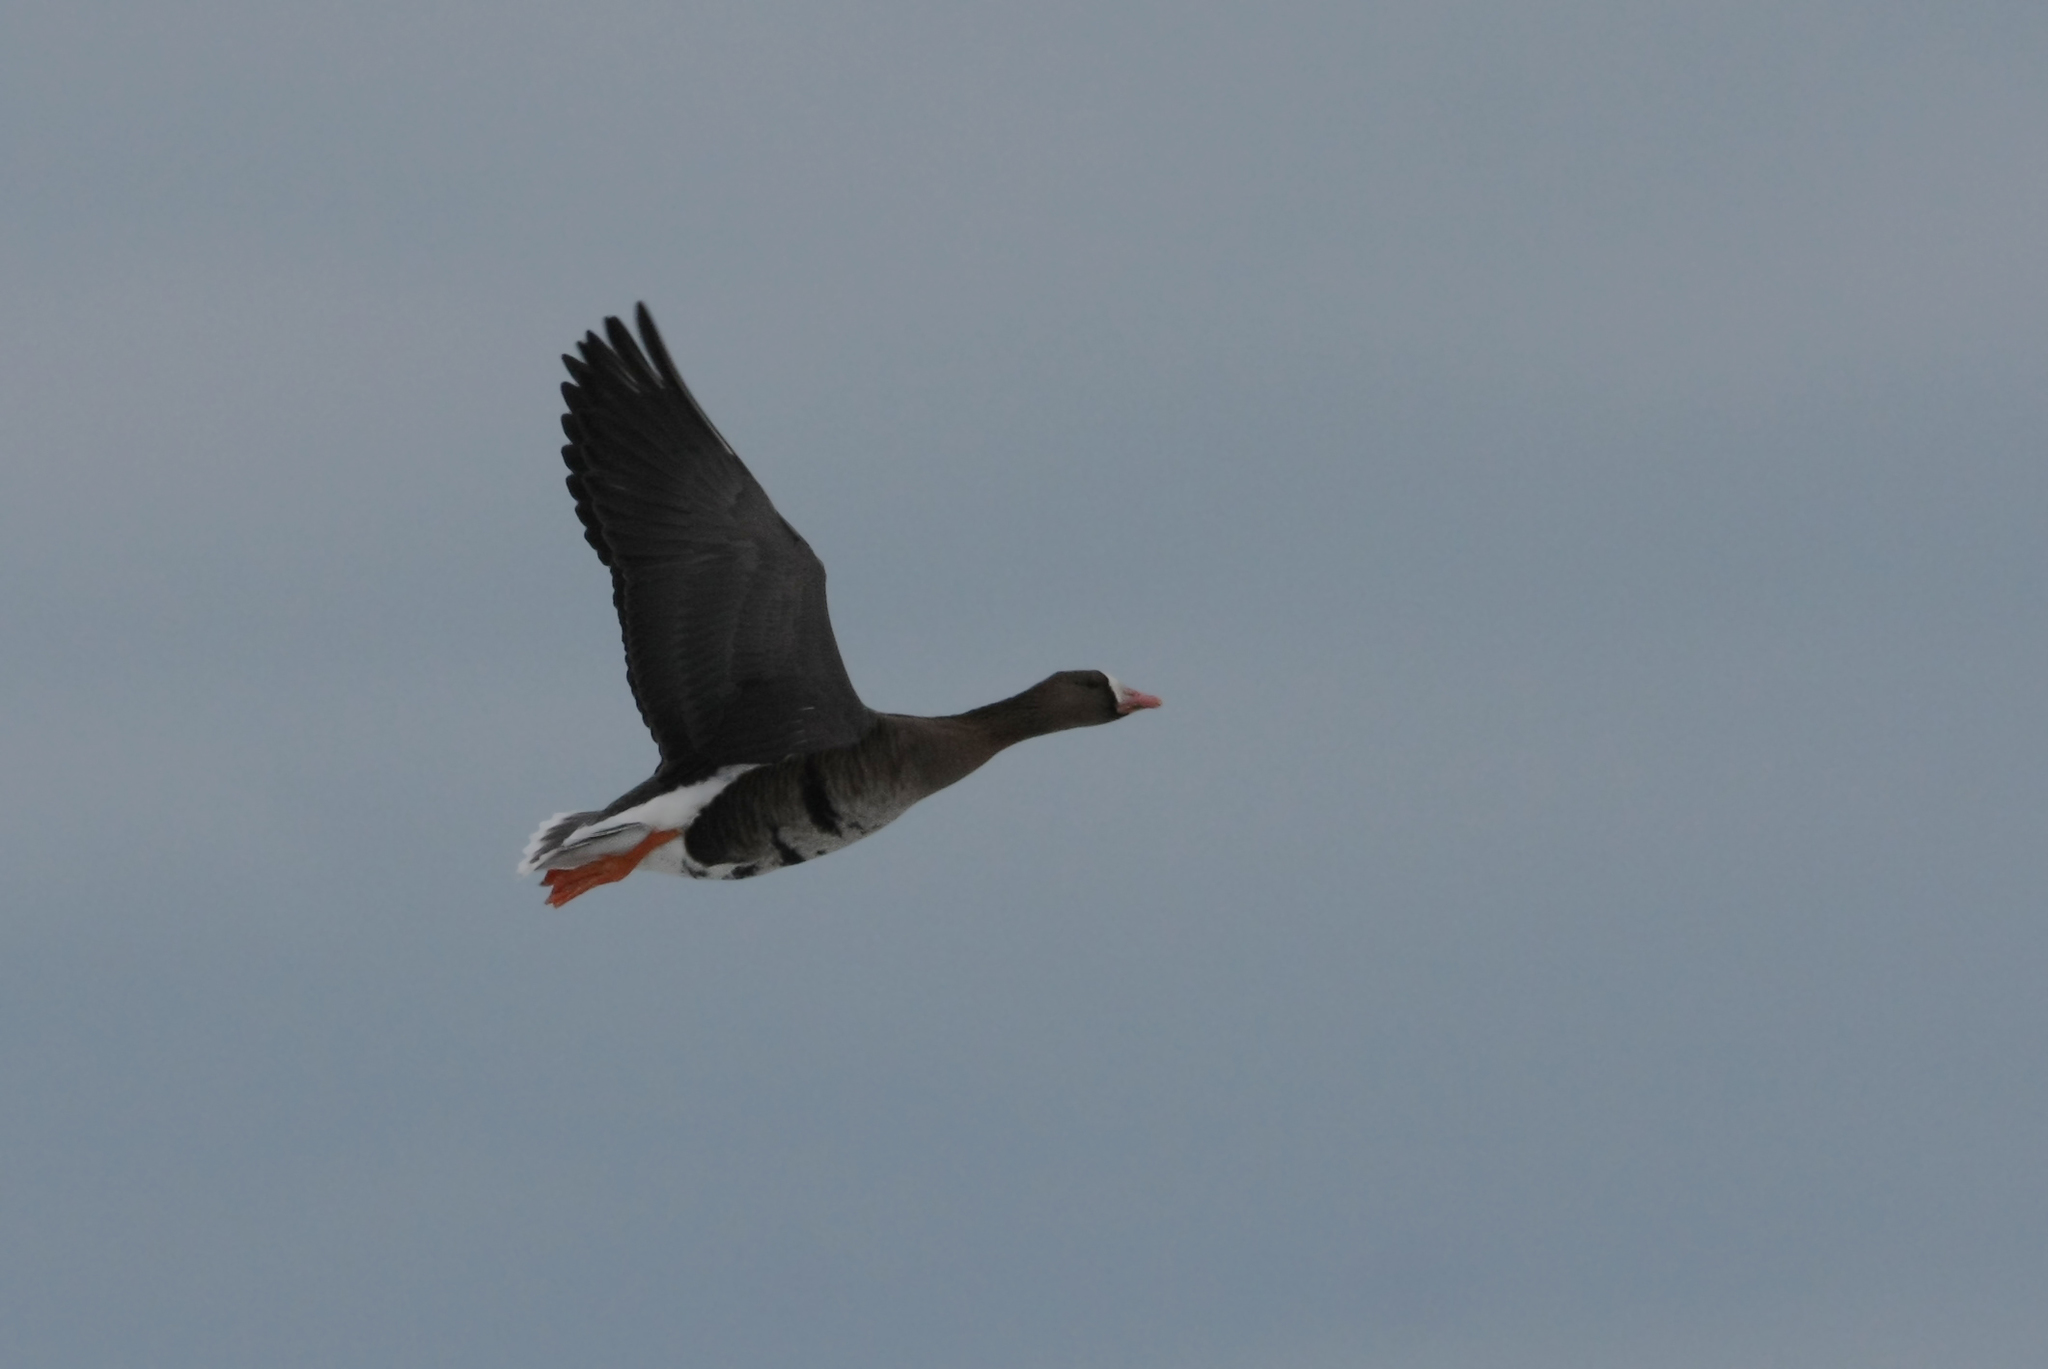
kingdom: Animalia
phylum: Chordata
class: Aves
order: Anseriformes
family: Anatidae
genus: Anser
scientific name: Anser albifrons
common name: Greater white-fronted goose
